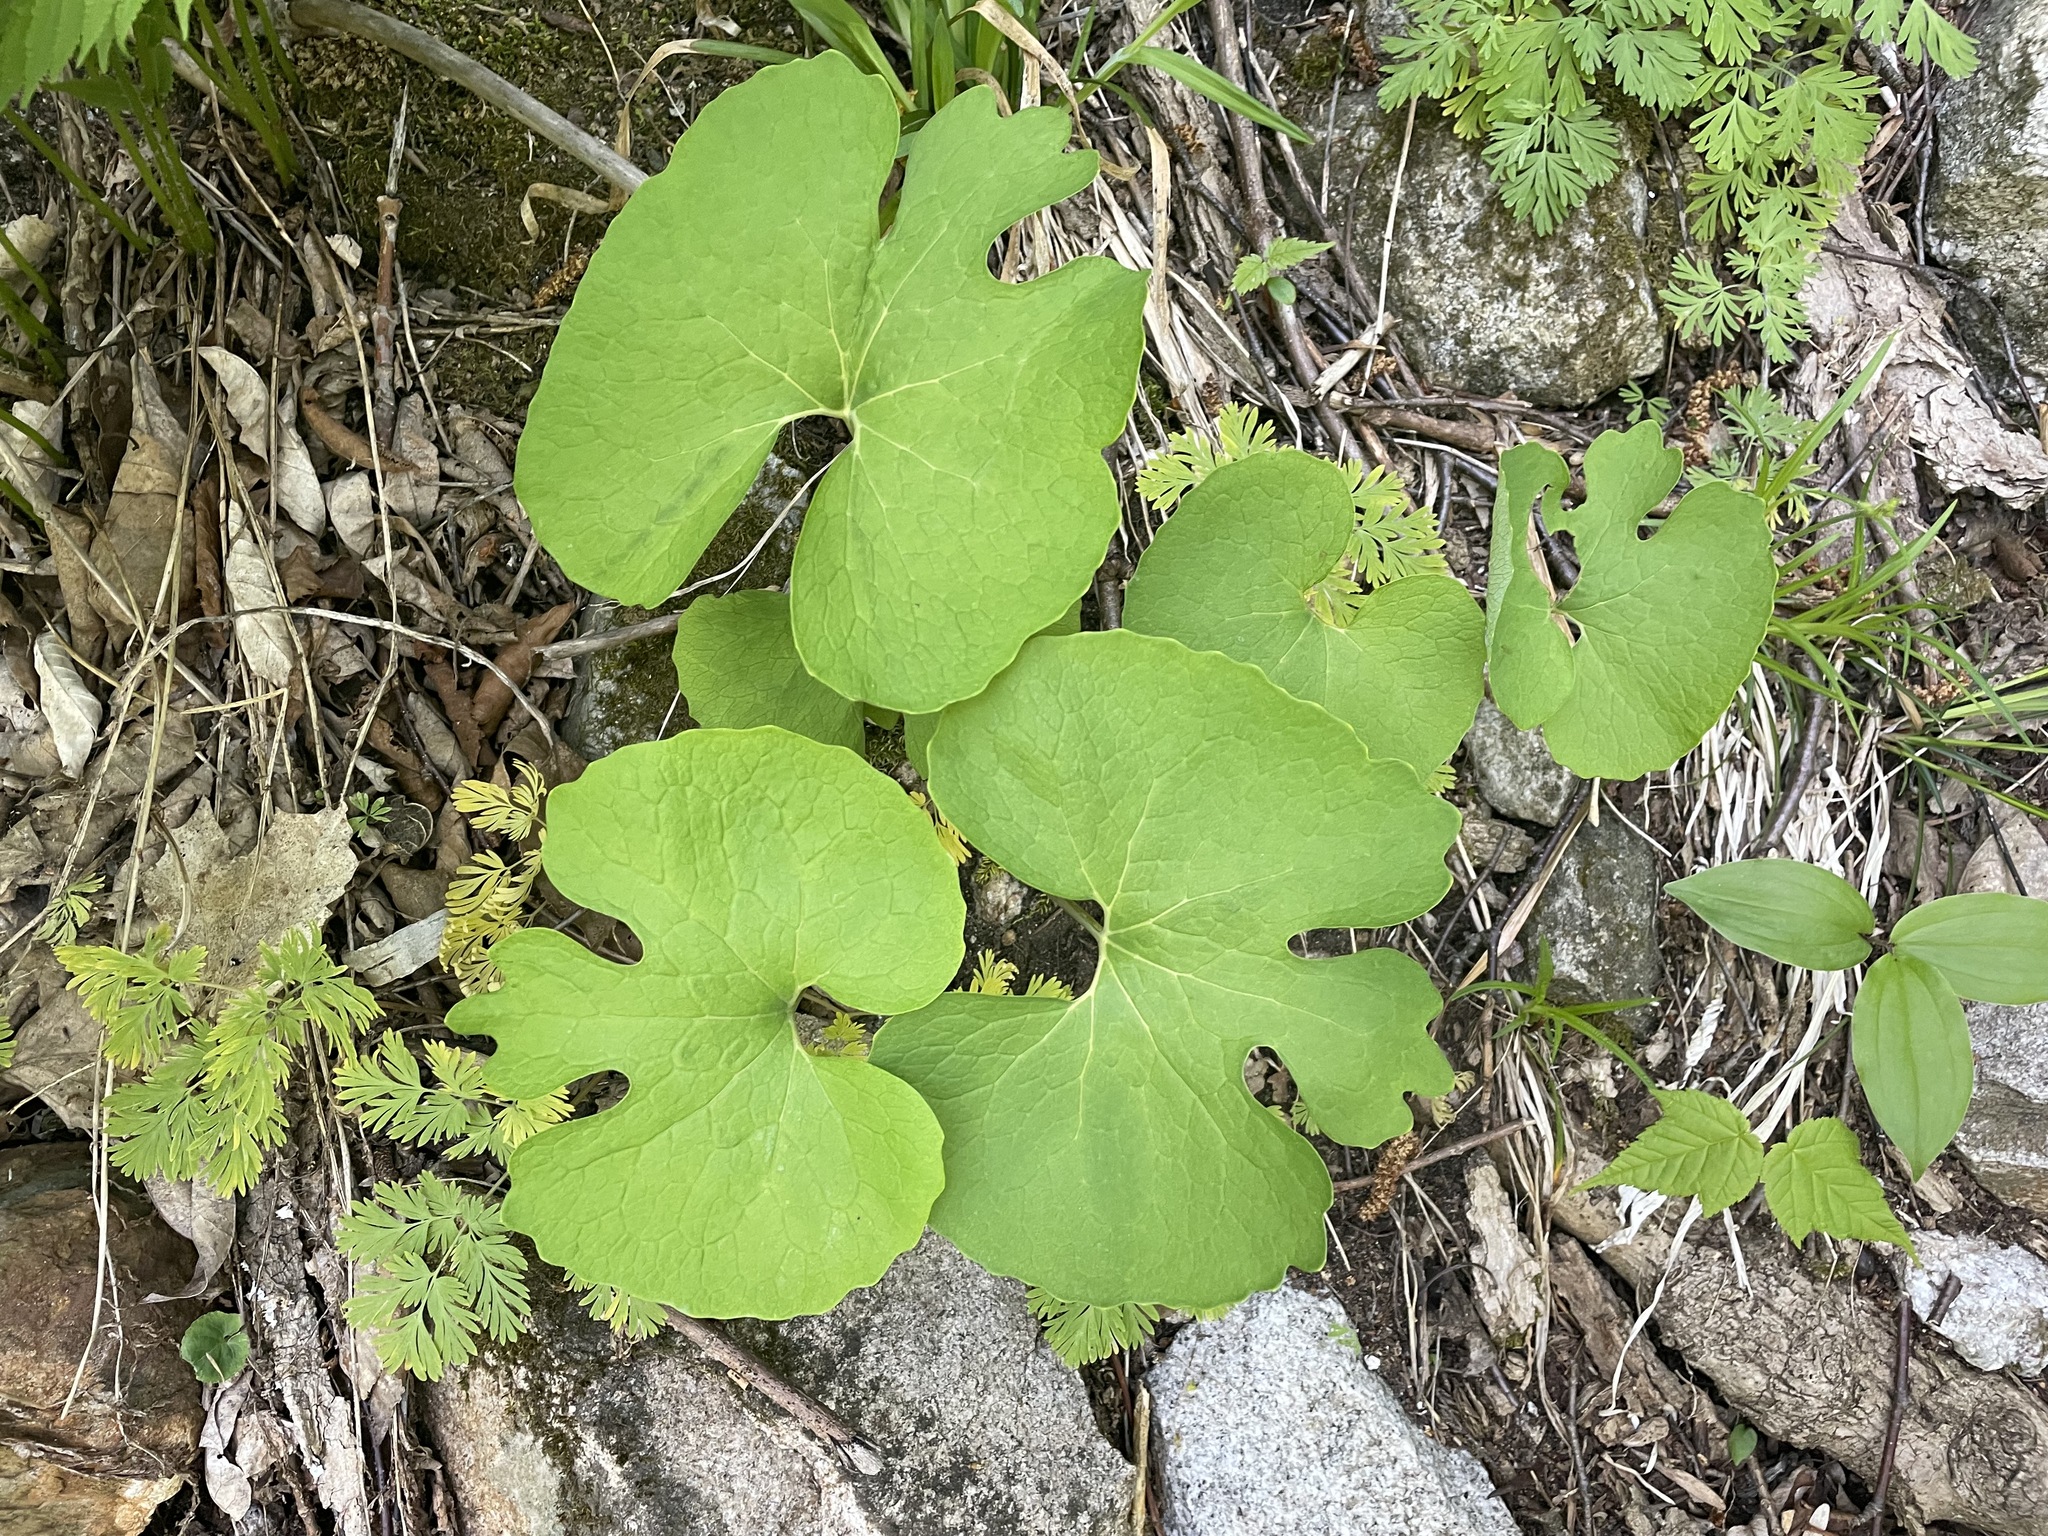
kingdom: Plantae
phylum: Tracheophyta
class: Magnoliopsida
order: Ranunculales
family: Papaveraceae
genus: Sanguinaria
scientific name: Sanguinaria canadensis
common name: Bloodroot
